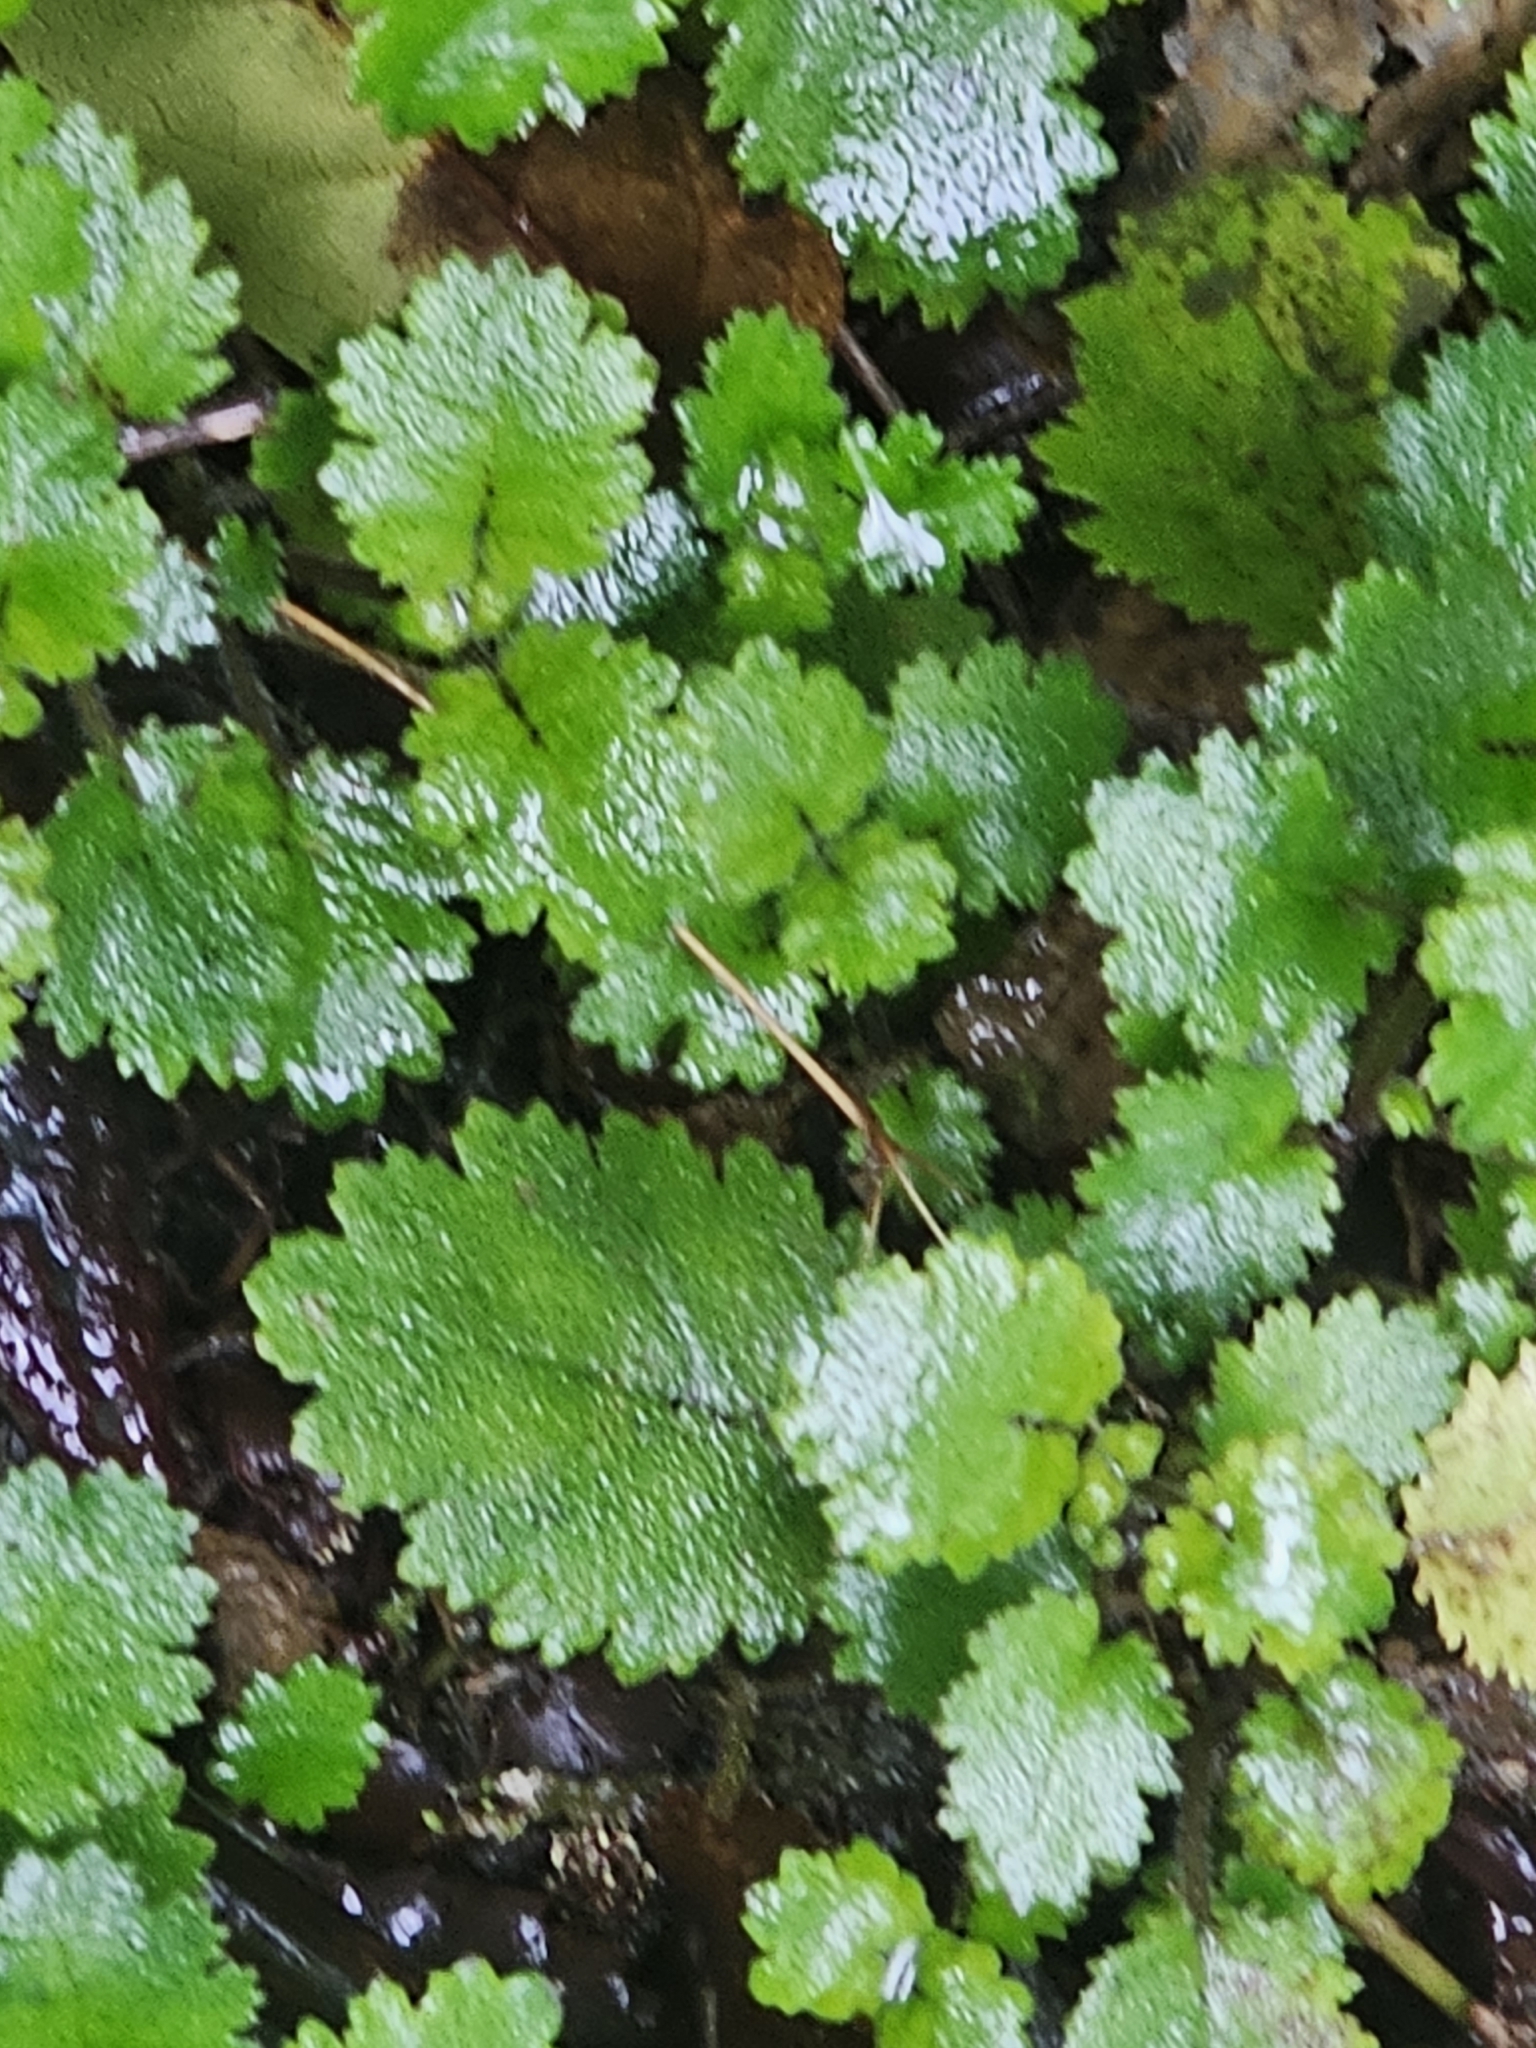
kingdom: Plantae
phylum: Tracheophyta
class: Magnoliopsida
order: Lamiales
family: Calceolariaceae
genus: Jovellana
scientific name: Jovellana repens
